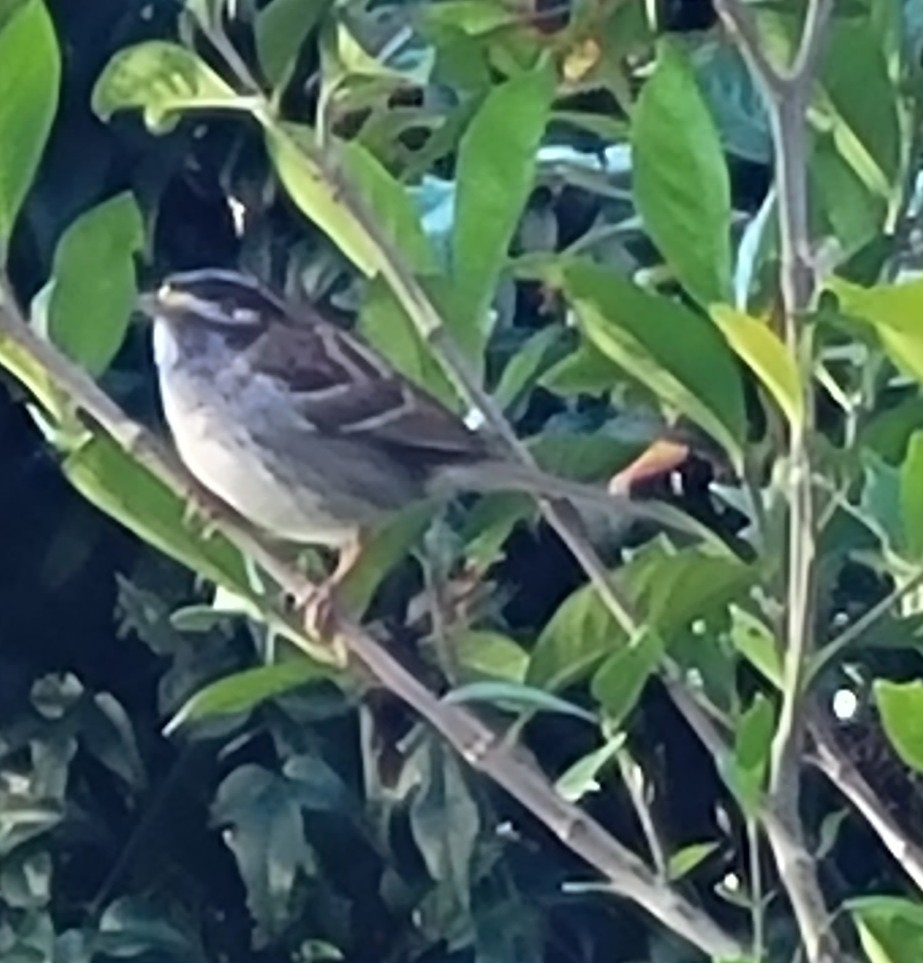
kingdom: Animalia
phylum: Chordata
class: Aves
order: Passeriformes
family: Passerellidae
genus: Zonotrichia
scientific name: Zonotrichia albicollis
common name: White-throated sparrow
